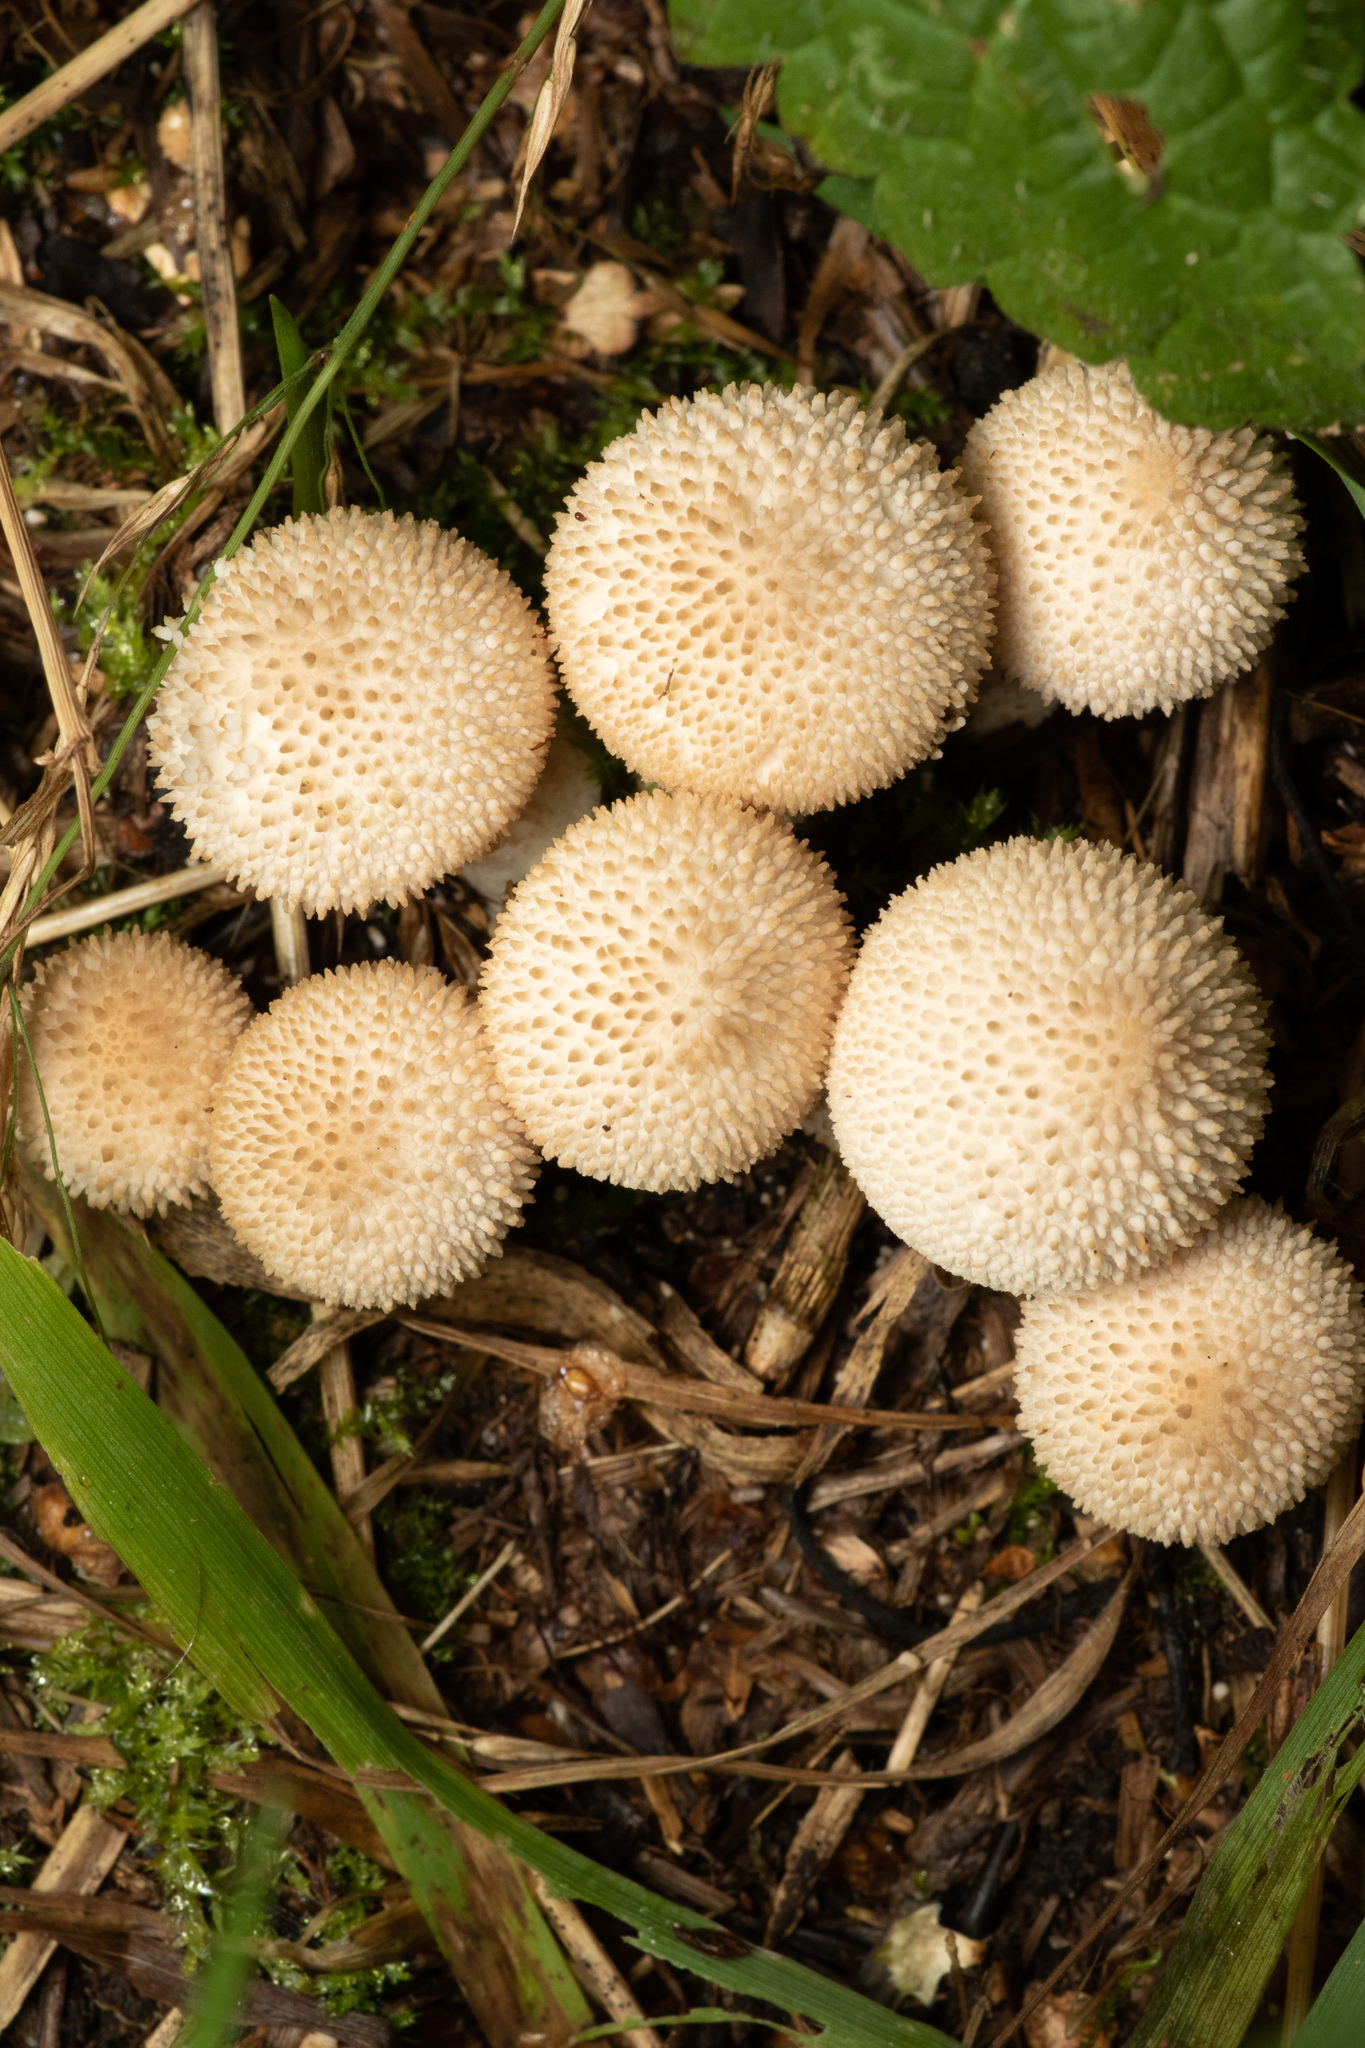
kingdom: Fungi
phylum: Basidiomycota
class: Agaricomycetes
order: Agaricales
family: Lycoperdaceae
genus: Lycoperdon
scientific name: Lycoperdon perlatum
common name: Common puffball
